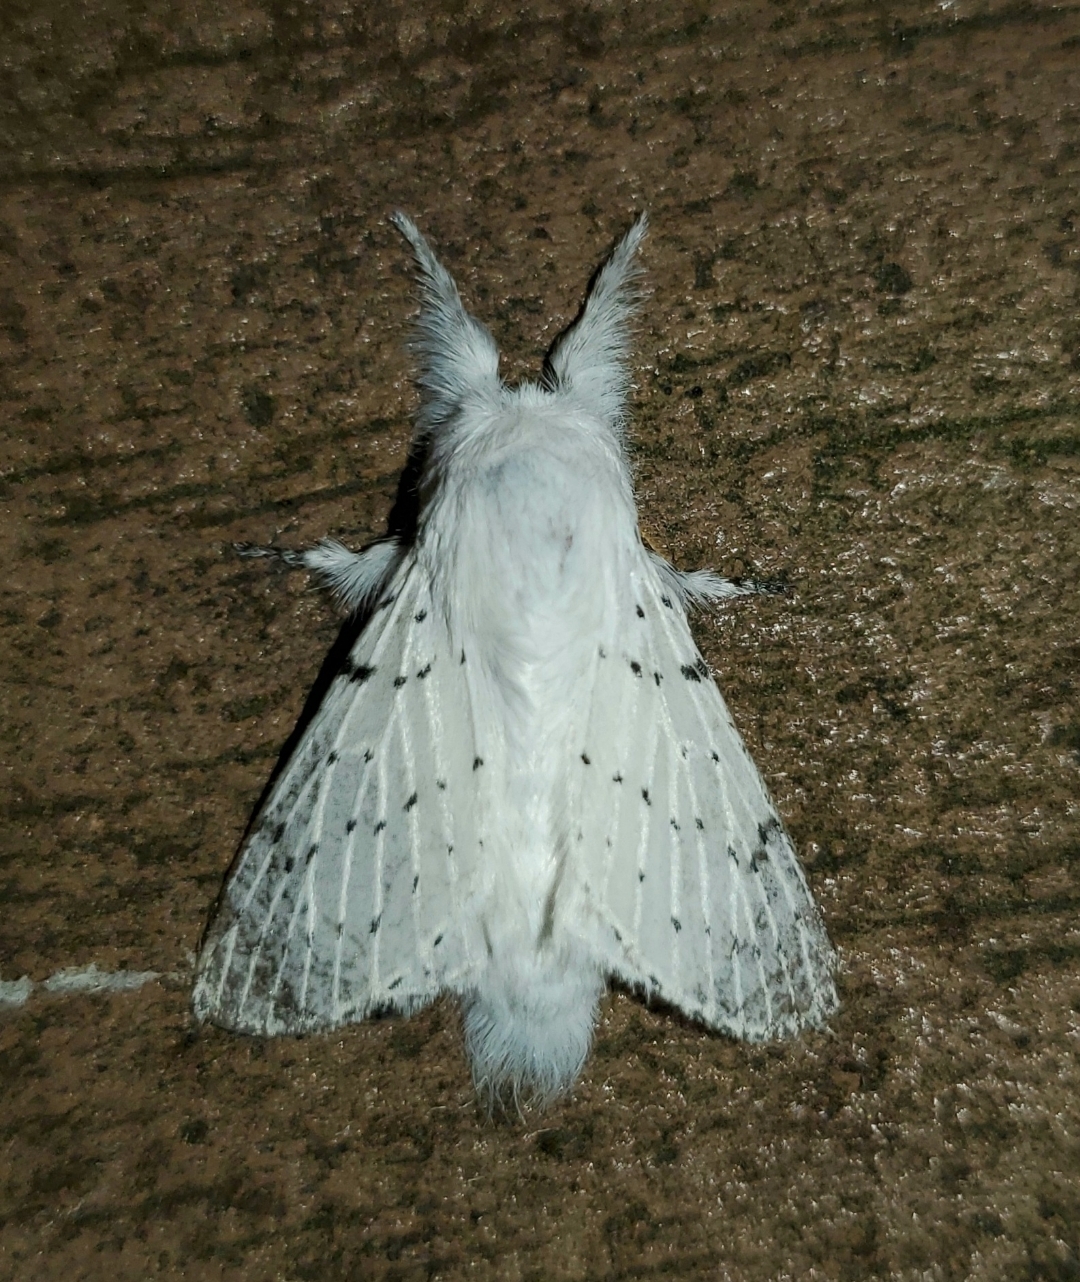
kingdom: Animalia
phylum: Arthropoda
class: Insecta
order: Lepidoptera
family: Lasiocampidae
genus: Artace
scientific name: Artace cribrarius
